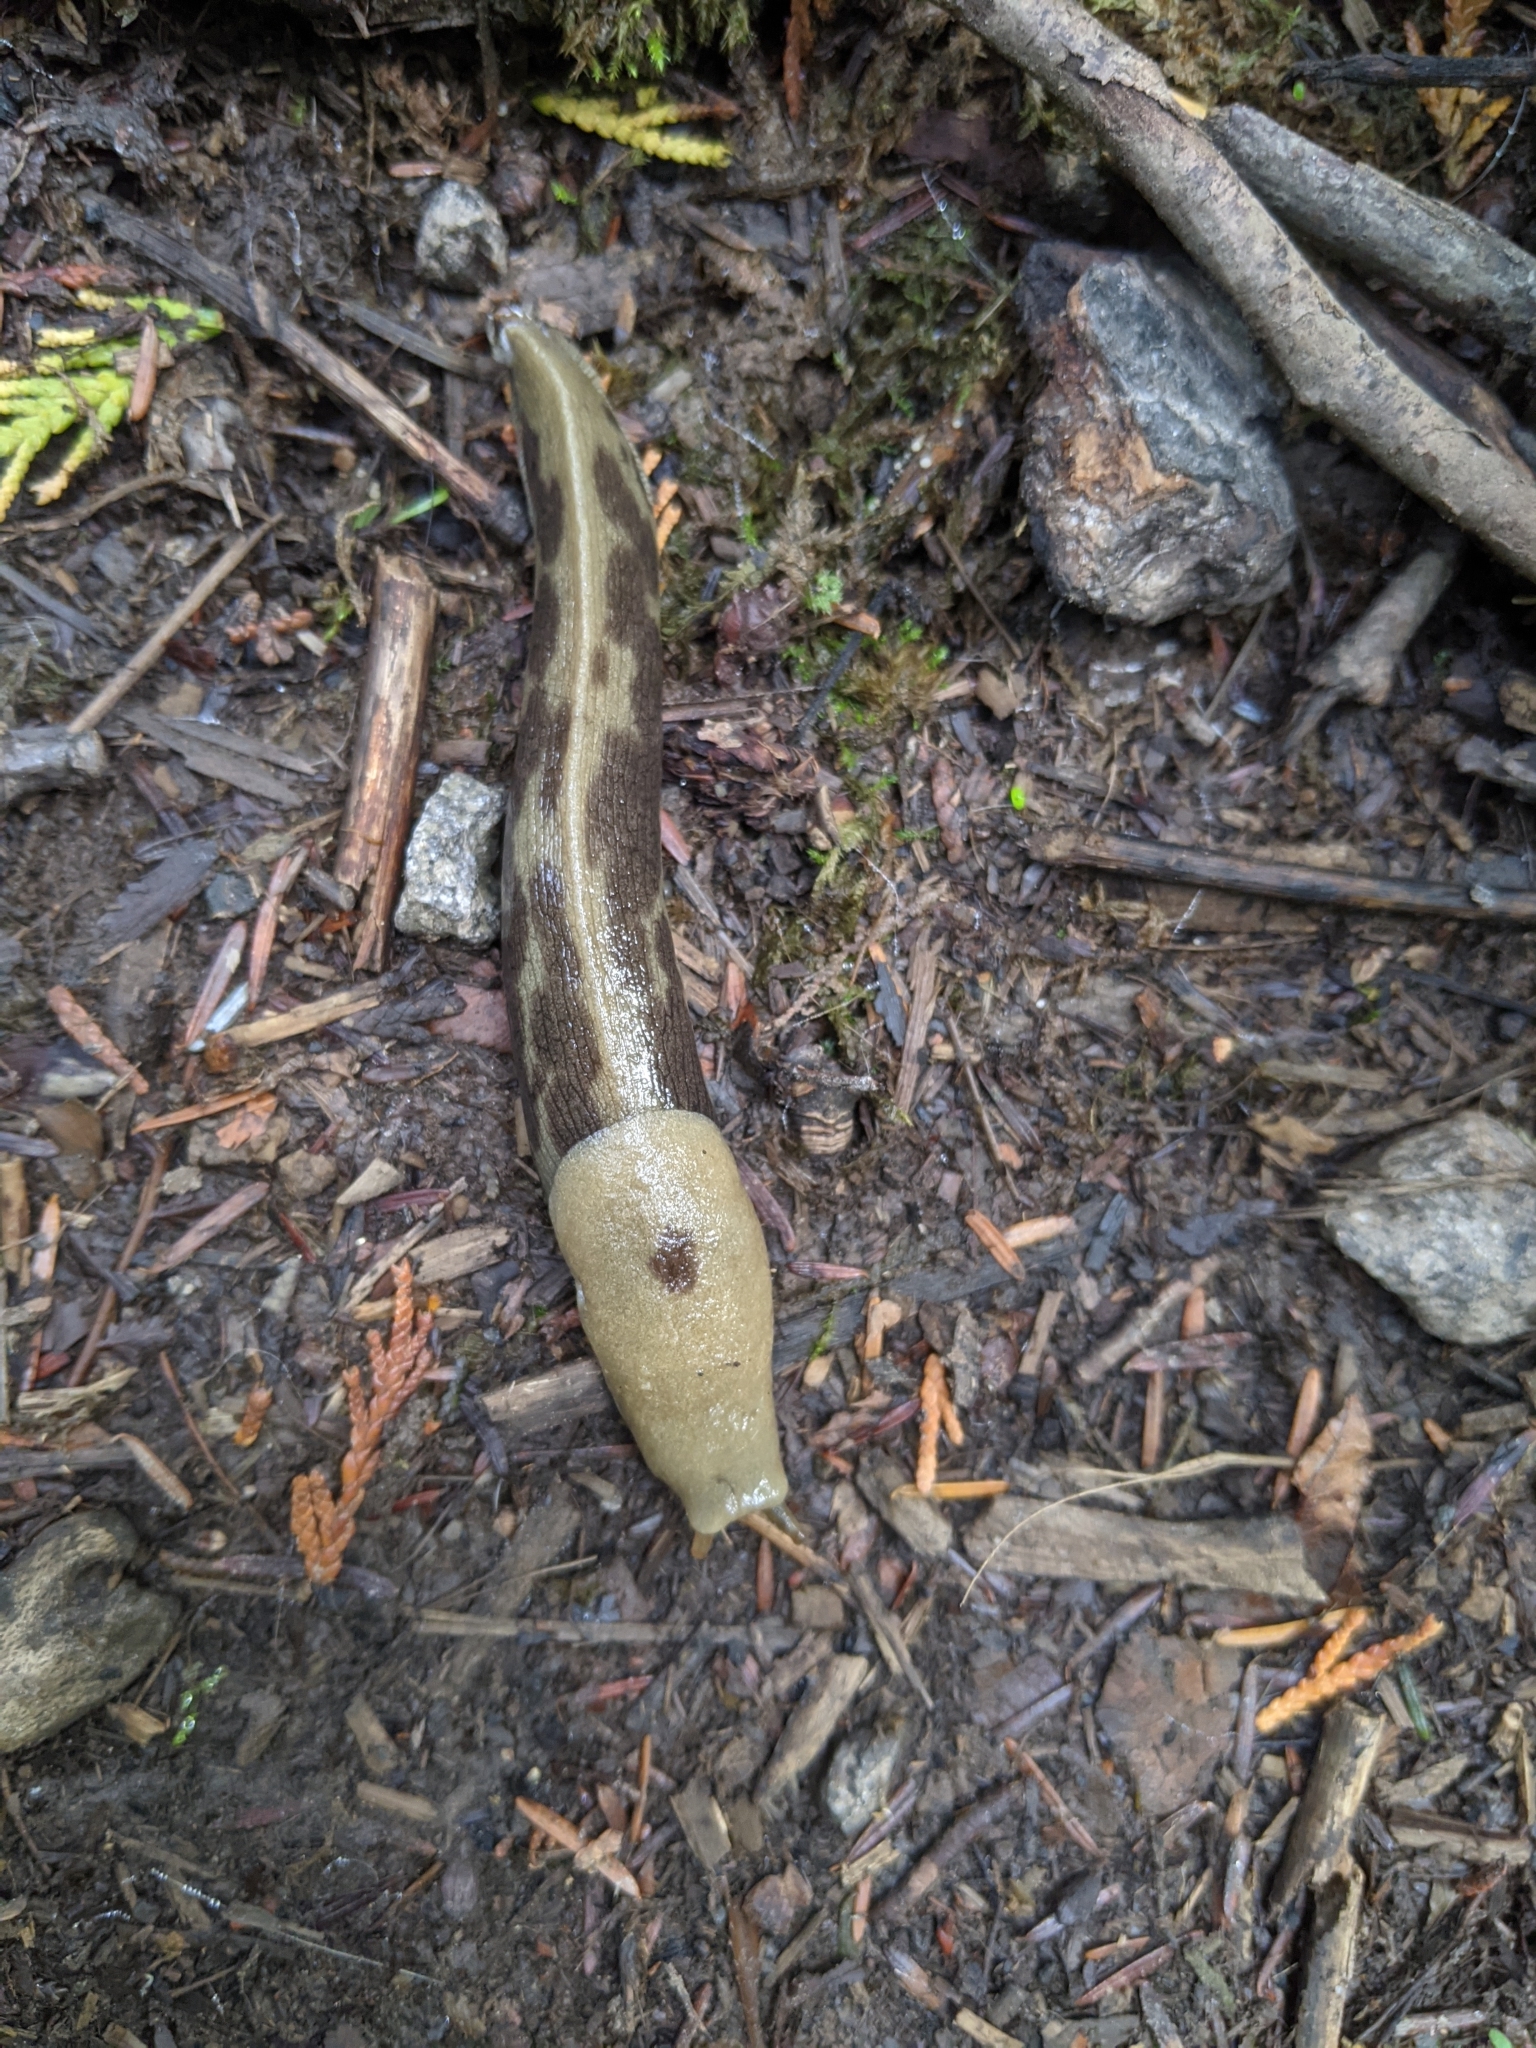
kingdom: Animalia
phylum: Mollusca
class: Gastropoda
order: Stylommatophora
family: Ariolimacidae
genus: Ariolimax
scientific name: Ariolimax columbianus
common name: Pacific banana slug
